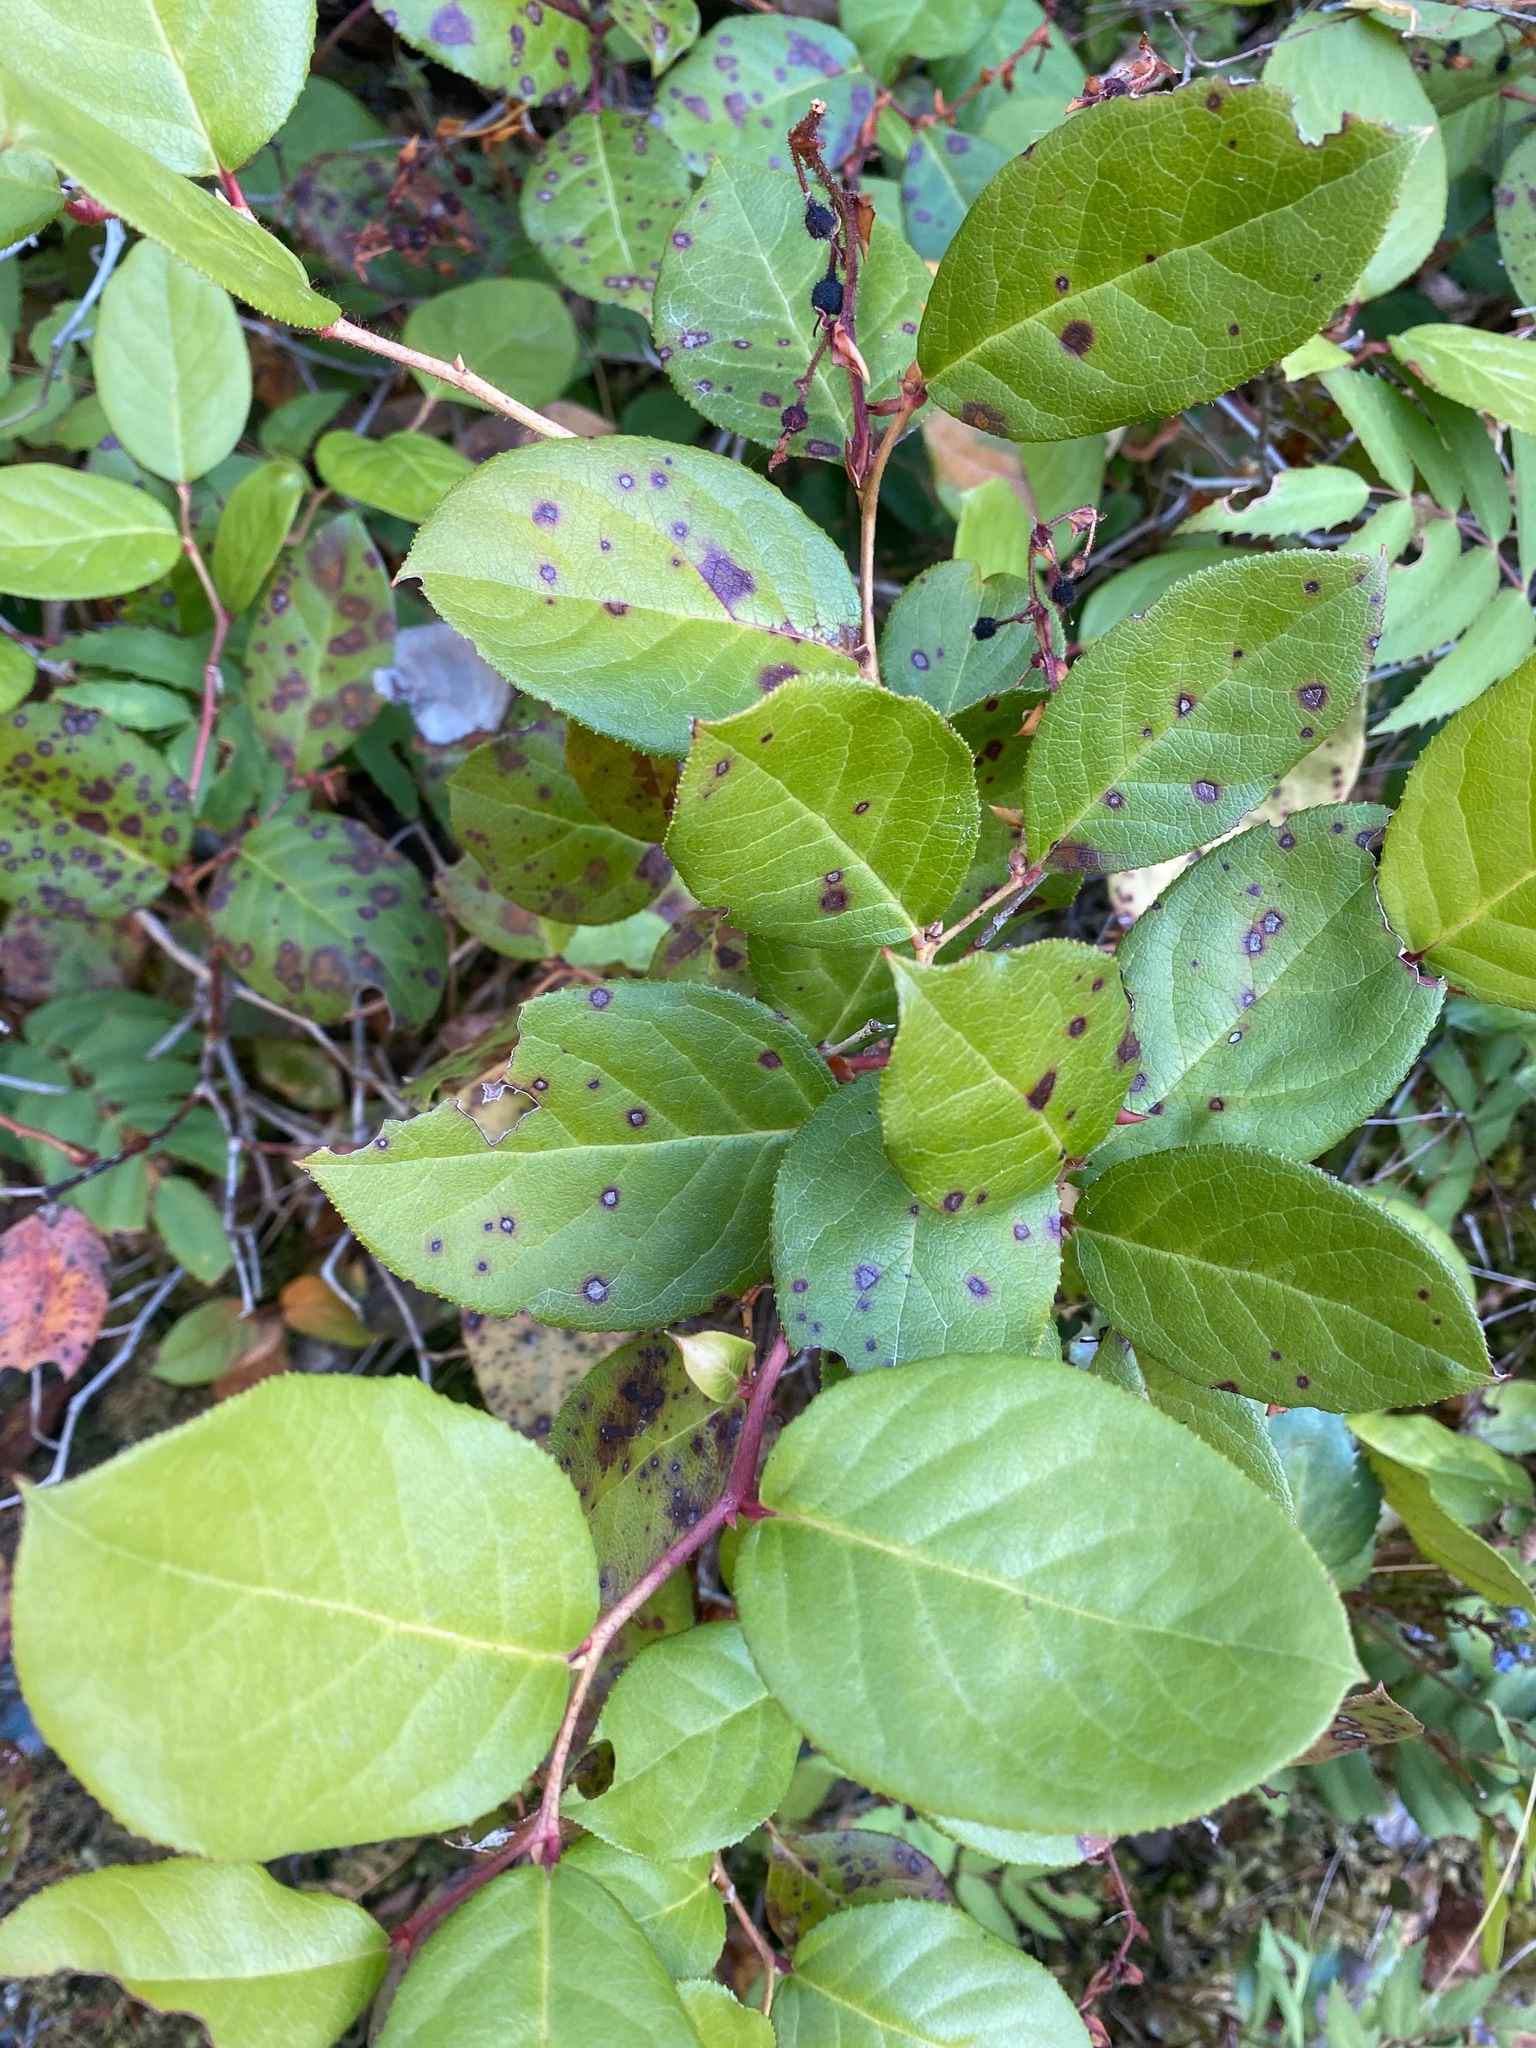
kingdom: Plantae
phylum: Tracheophyta
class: Magnoliopsida
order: Ericales
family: Ericaceae
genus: Gaultheria
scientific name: Gaultheria shallon
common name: Shallon
